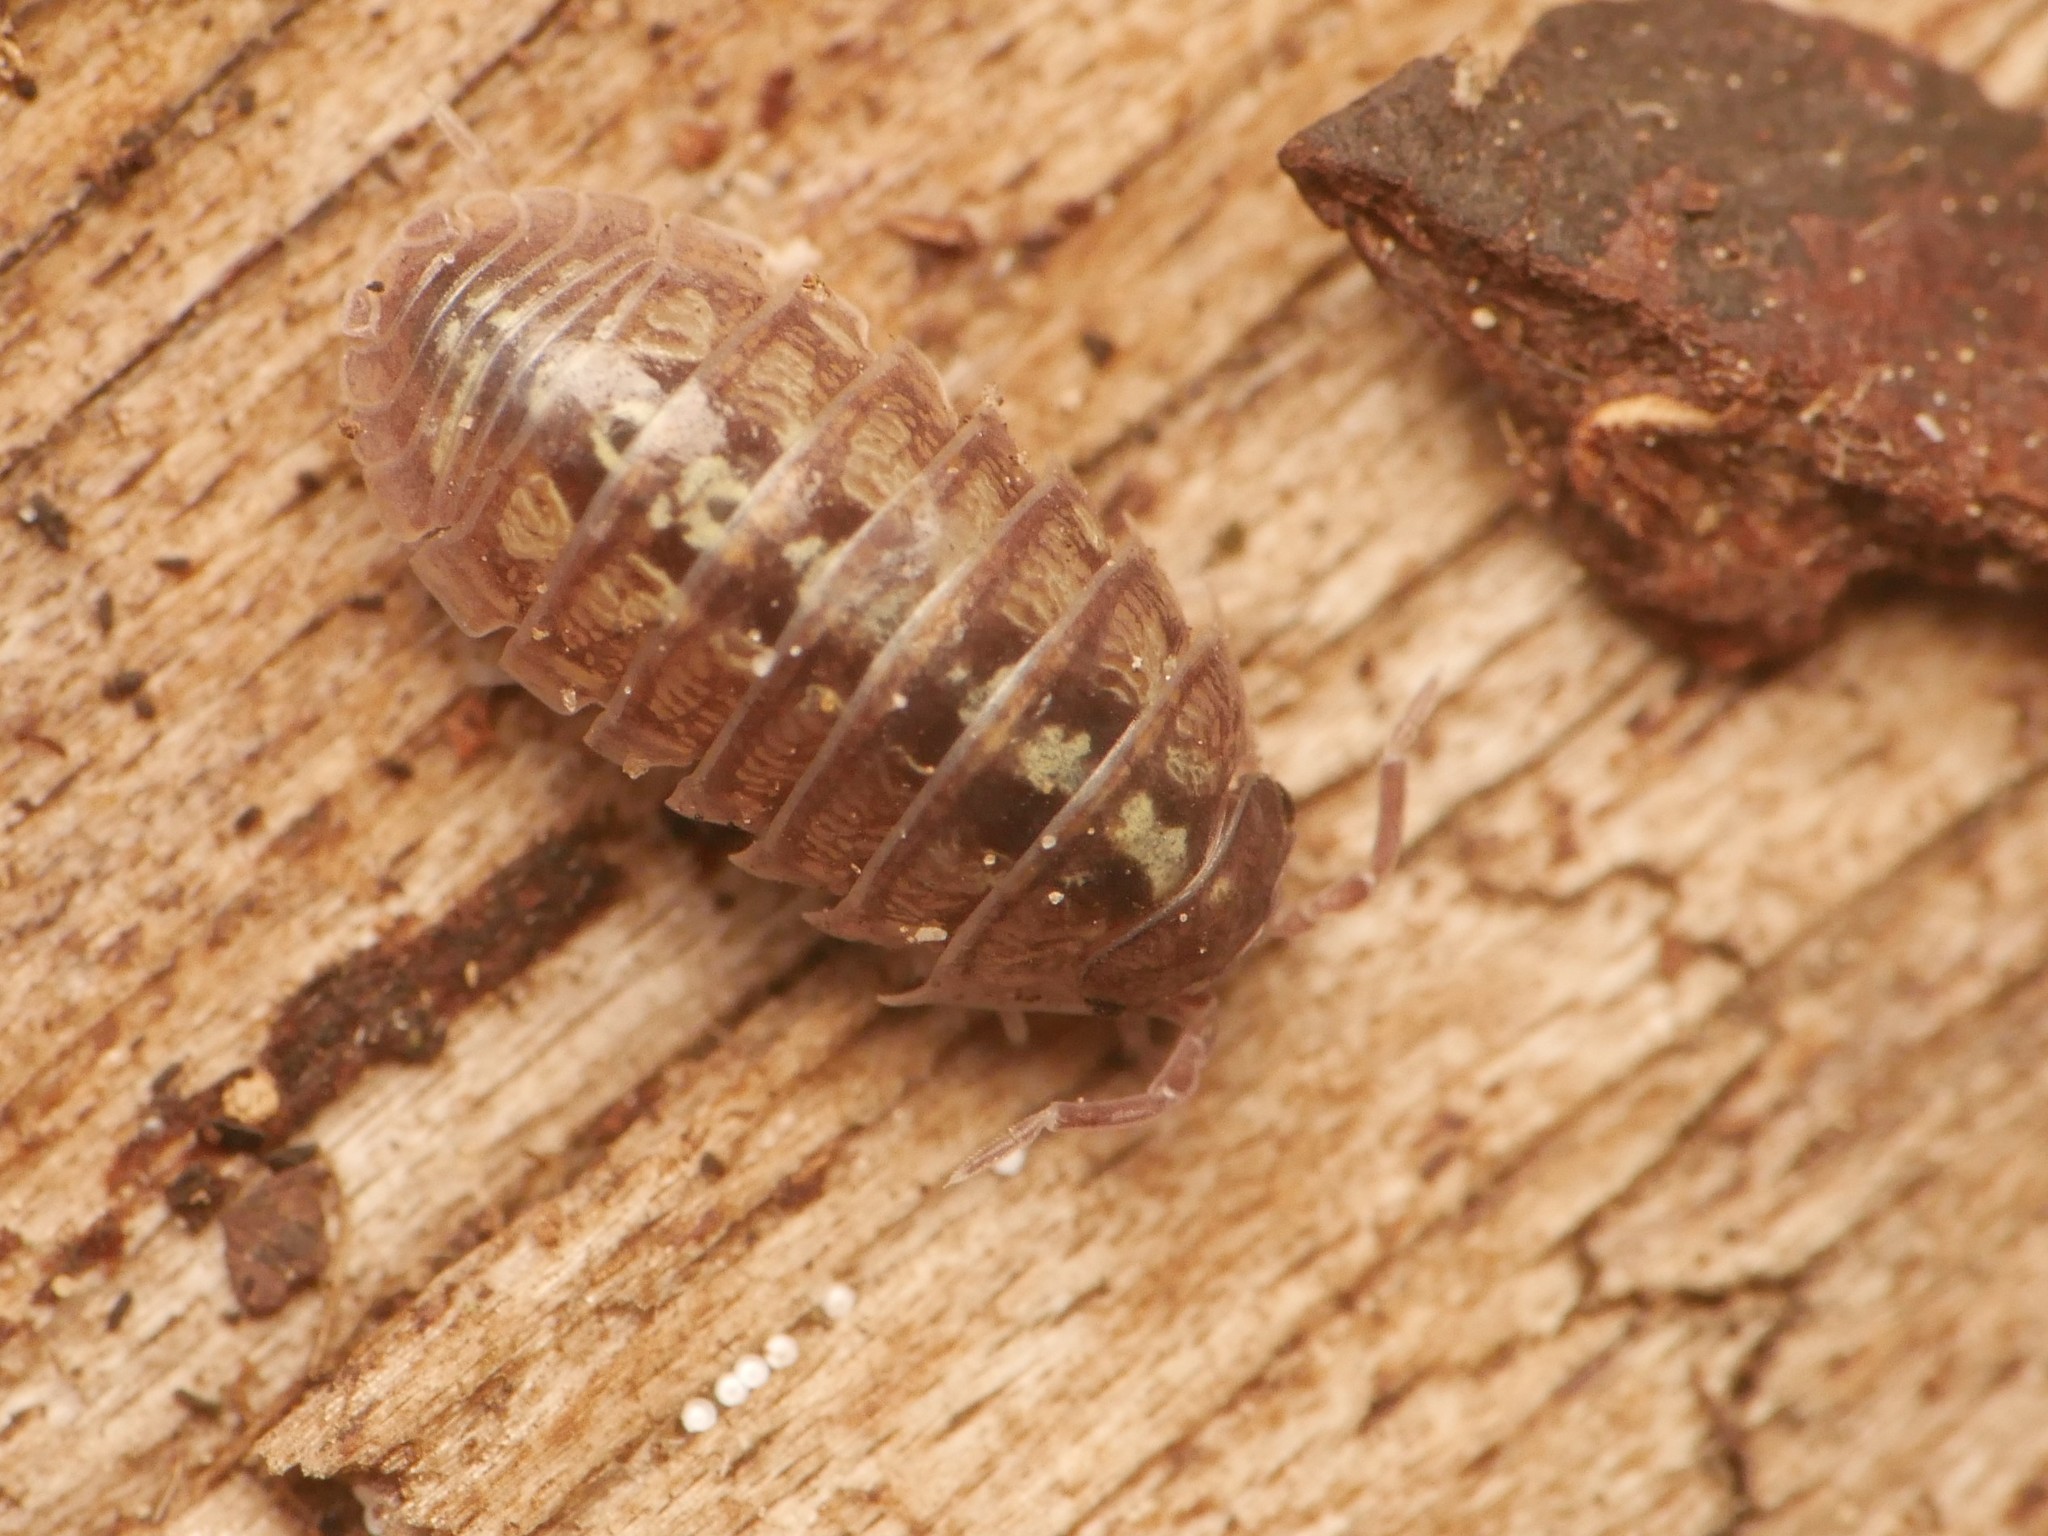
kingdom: Animalia
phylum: Arthropoda
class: Malacostraca
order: Isopoda
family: Armadillidiidae
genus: Armadillidium
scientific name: Armadillidium vulgare
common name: Common pill woodlouse
